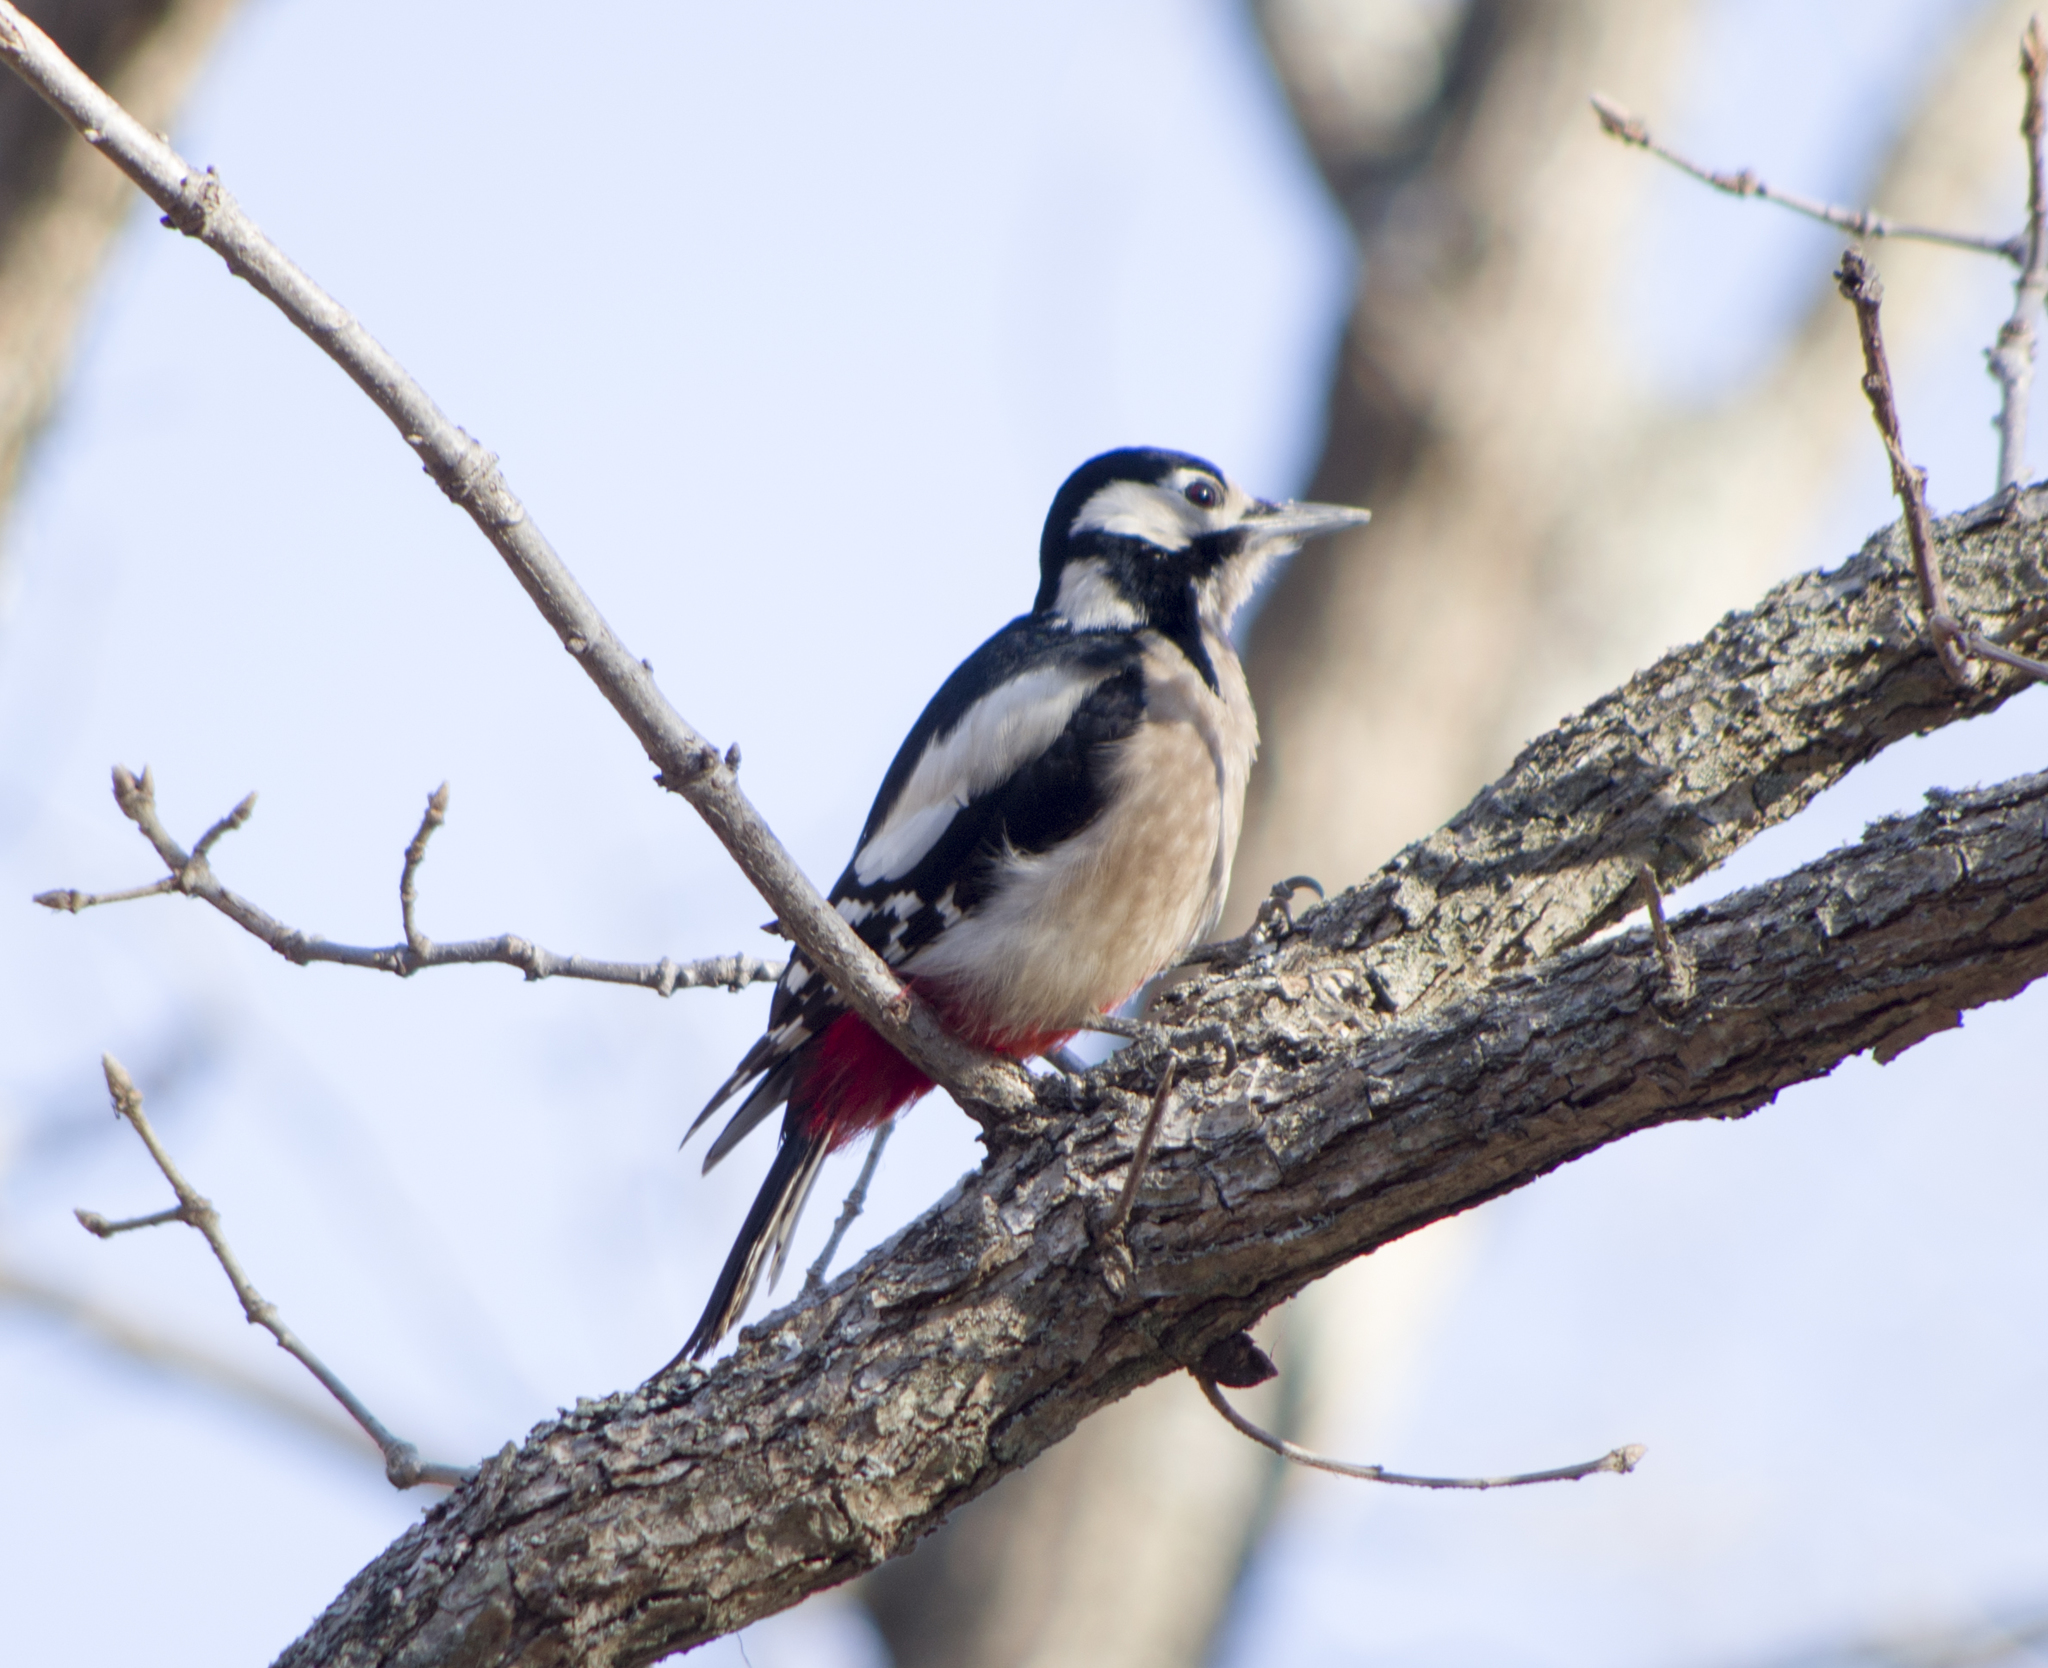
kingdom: Animalia
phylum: Chordata
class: Aves
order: Piciformes
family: Picidae
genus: Dendrocopos
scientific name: Dendrocopos major
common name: Great spotted woodpecker
